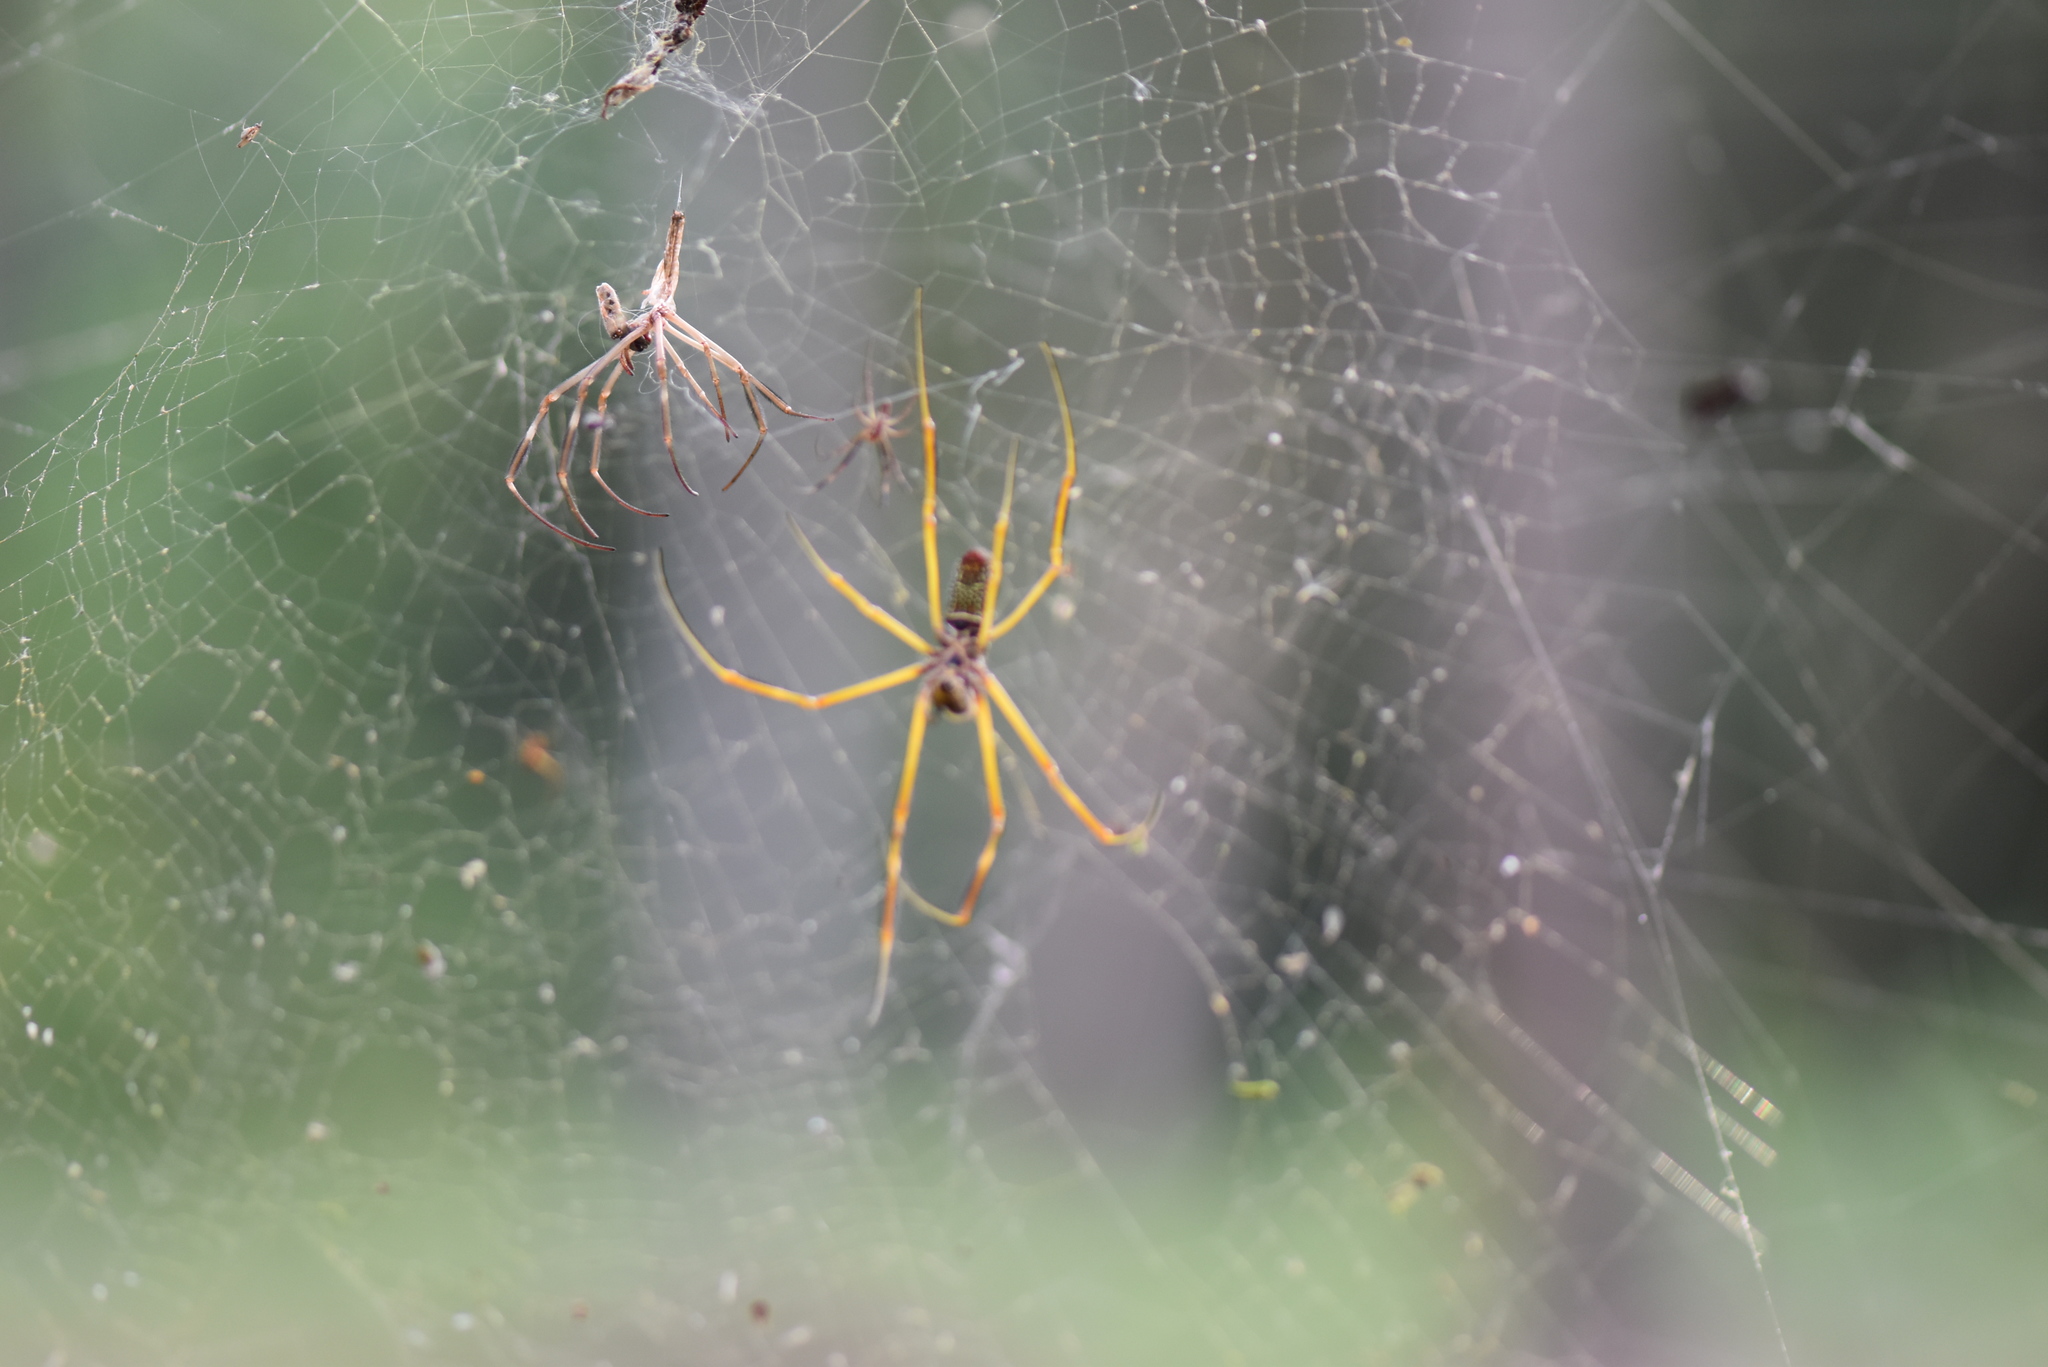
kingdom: Animalia
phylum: Arthropoda
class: Arachnida
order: Araneae
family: Araneidae
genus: Trichonephila
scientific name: Trichonephila clavipes
